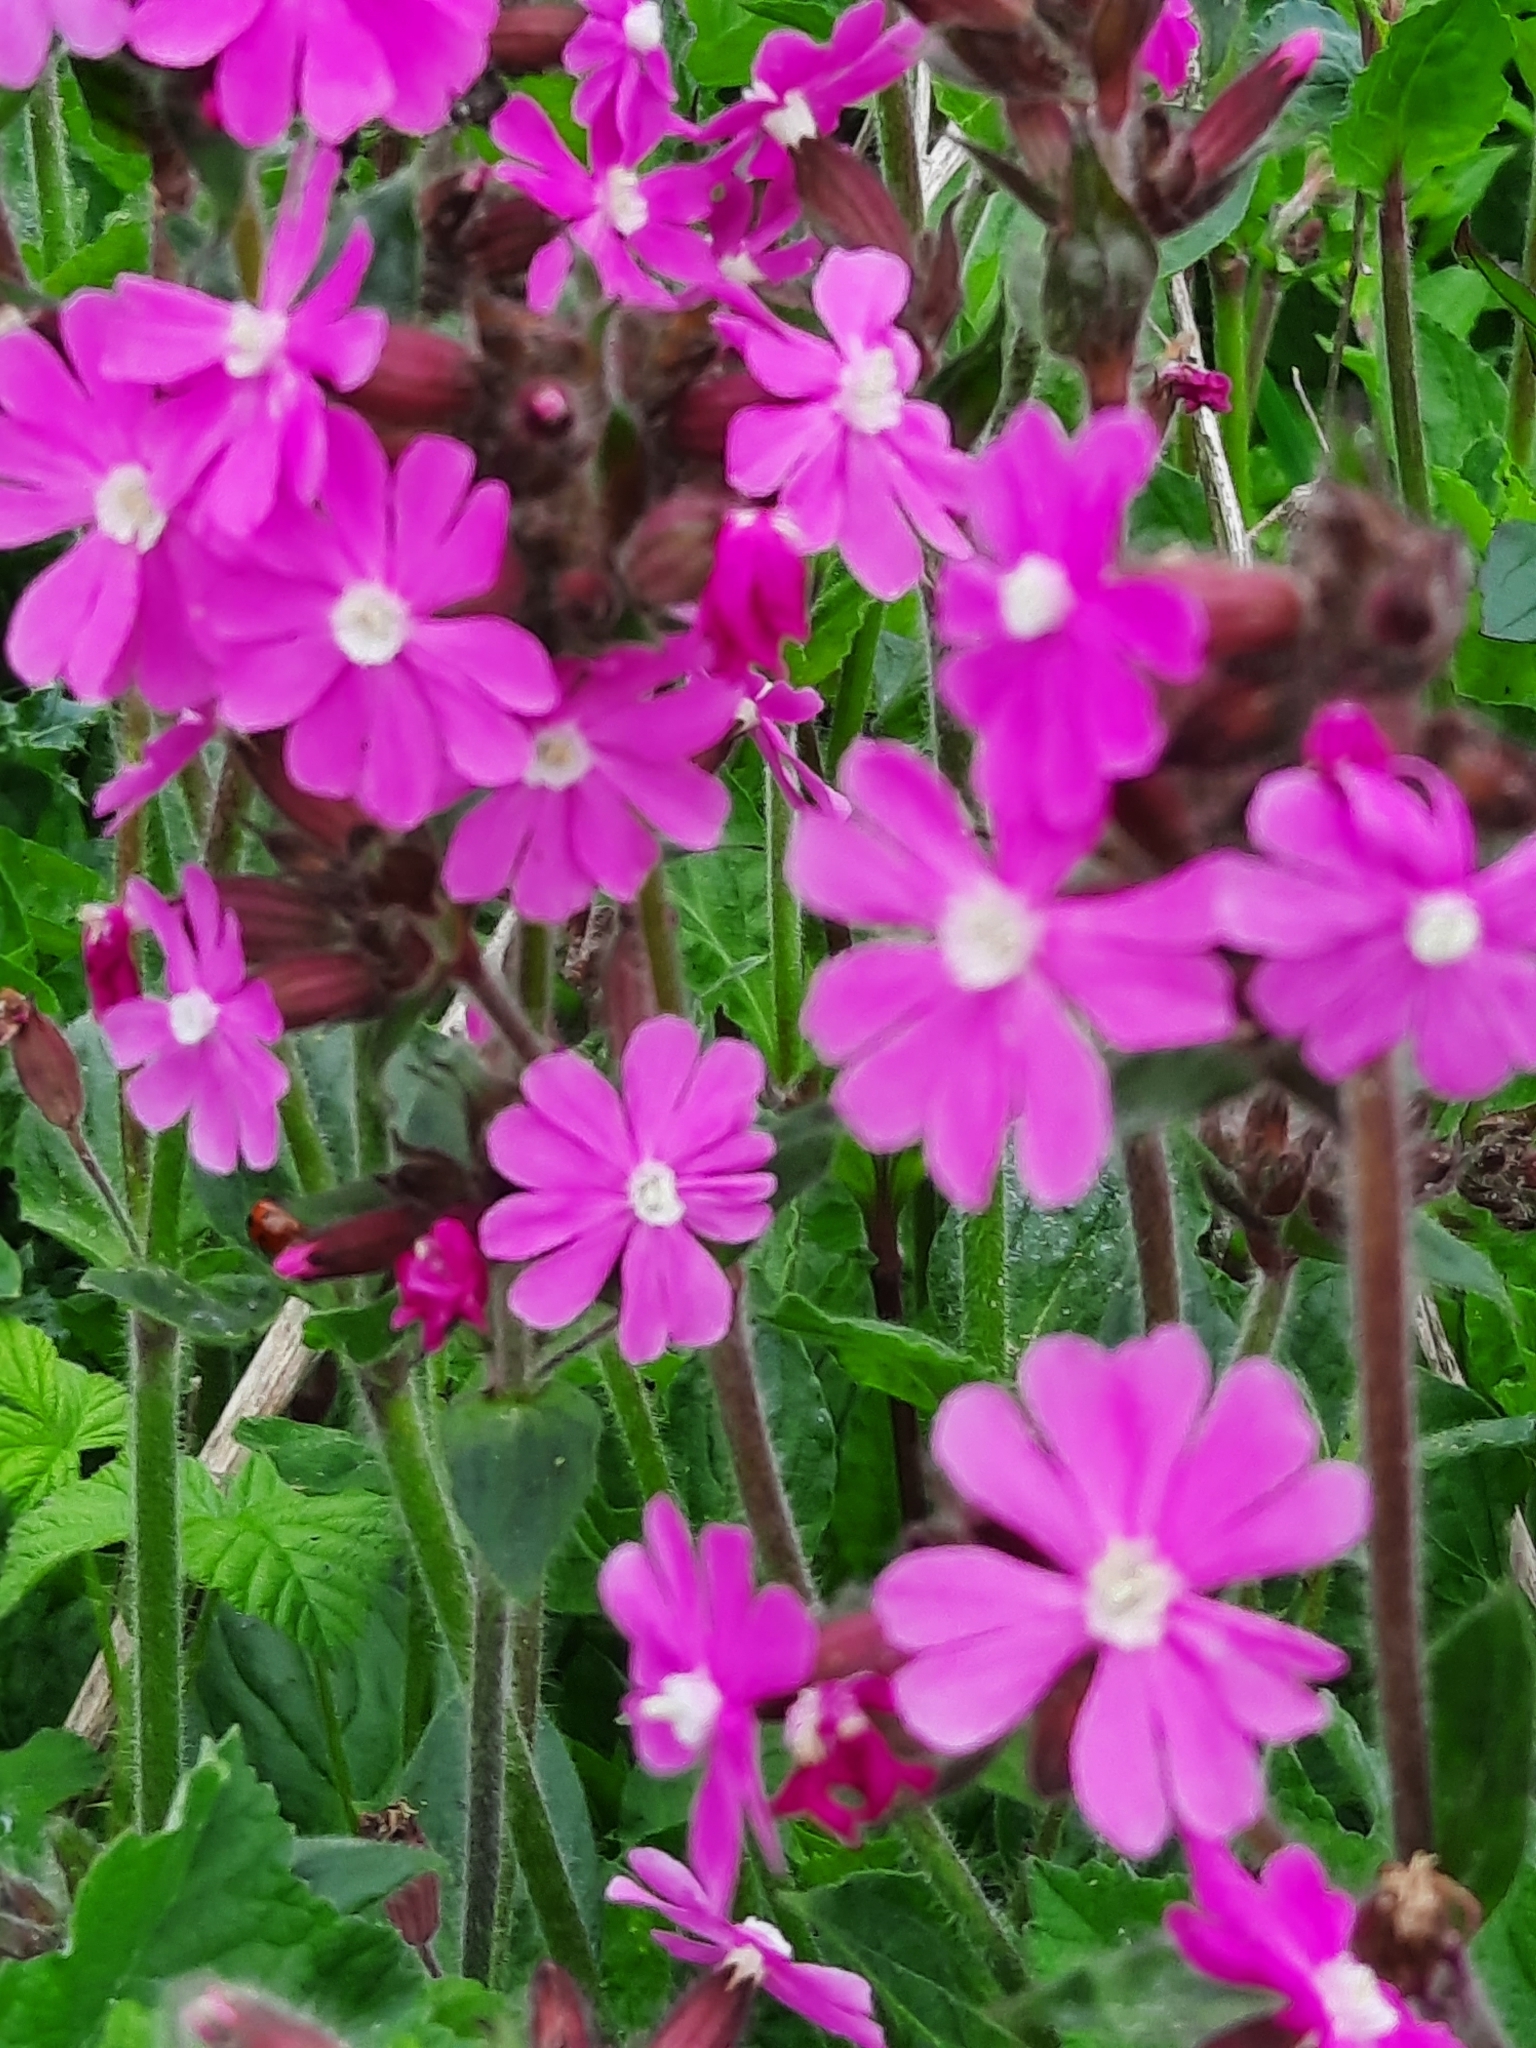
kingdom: Plantae
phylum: Tracheophyta
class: Magnoliopsida
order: Caryophyllales
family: Caryophyllaceae
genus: Silene
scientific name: Silene dioica
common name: Red campion
